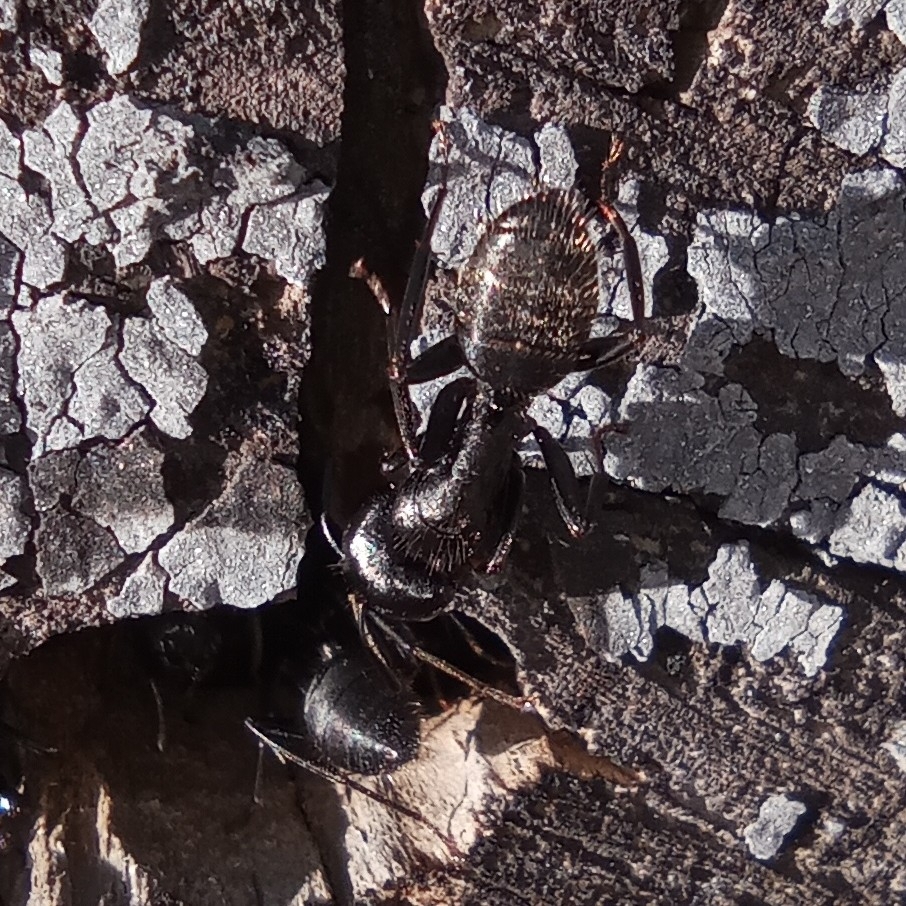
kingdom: Animalia
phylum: Arthropoda
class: Insecta
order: Hymenoptera
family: Formicidae
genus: Camponotus
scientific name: Camponotus vagus
